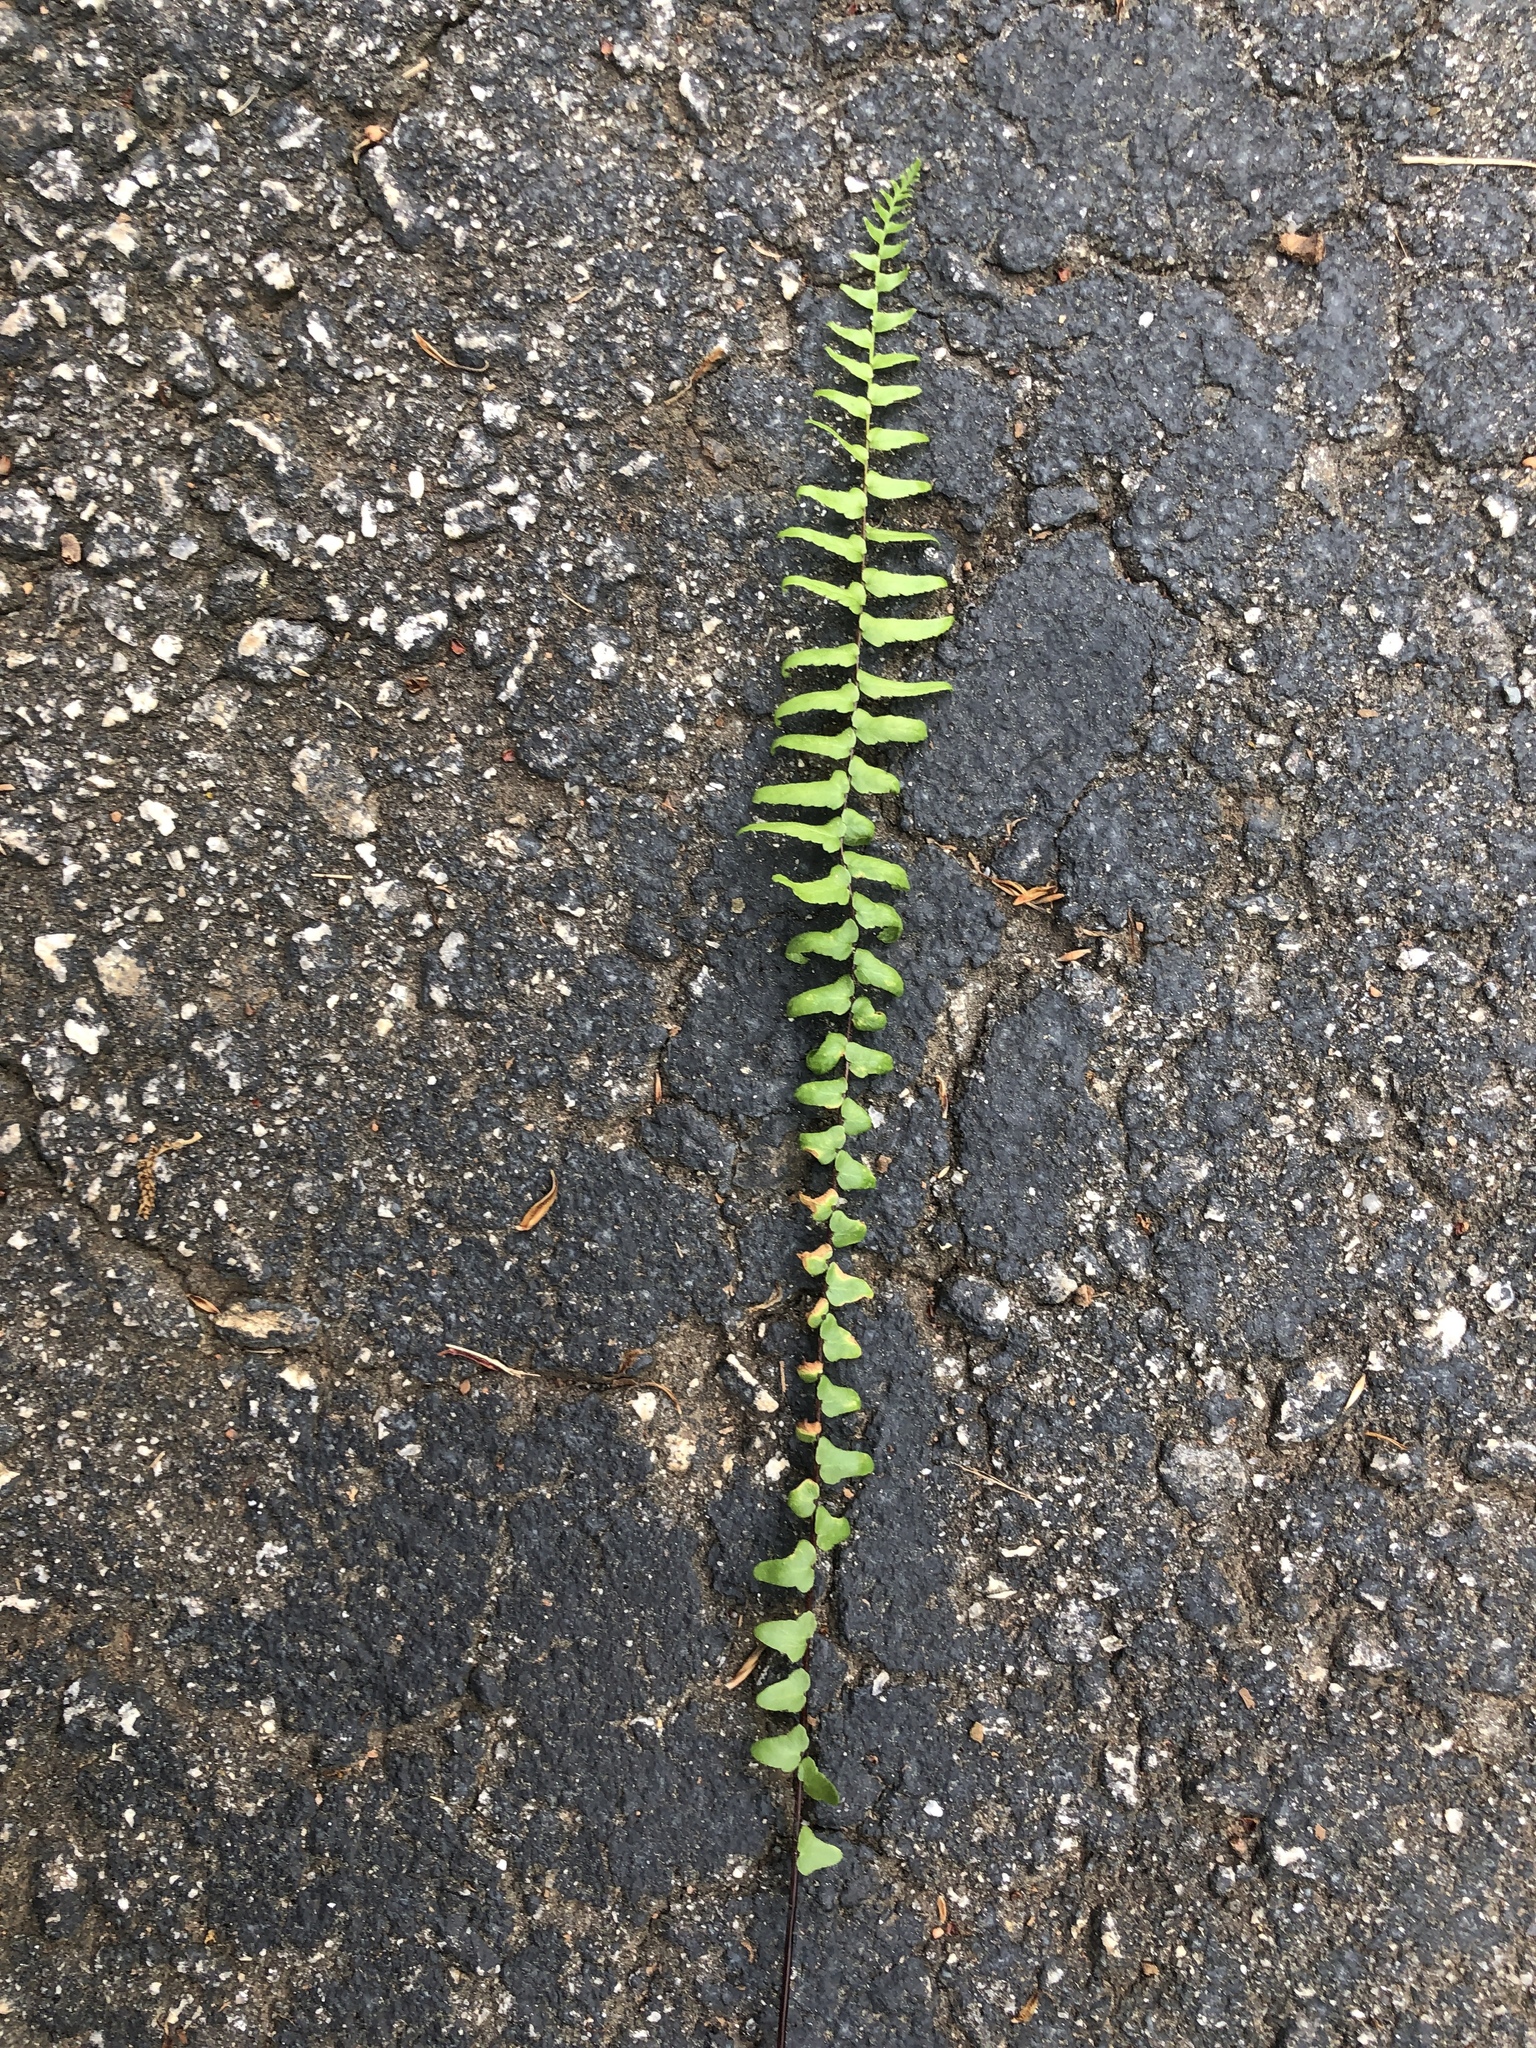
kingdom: Plantae
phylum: Tracheophyta
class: Polypodiopsida
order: Polypodiales
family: Aspleniaceae
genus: Asplenium
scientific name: Asplenium platyneuron
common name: Ebony spleenwort
